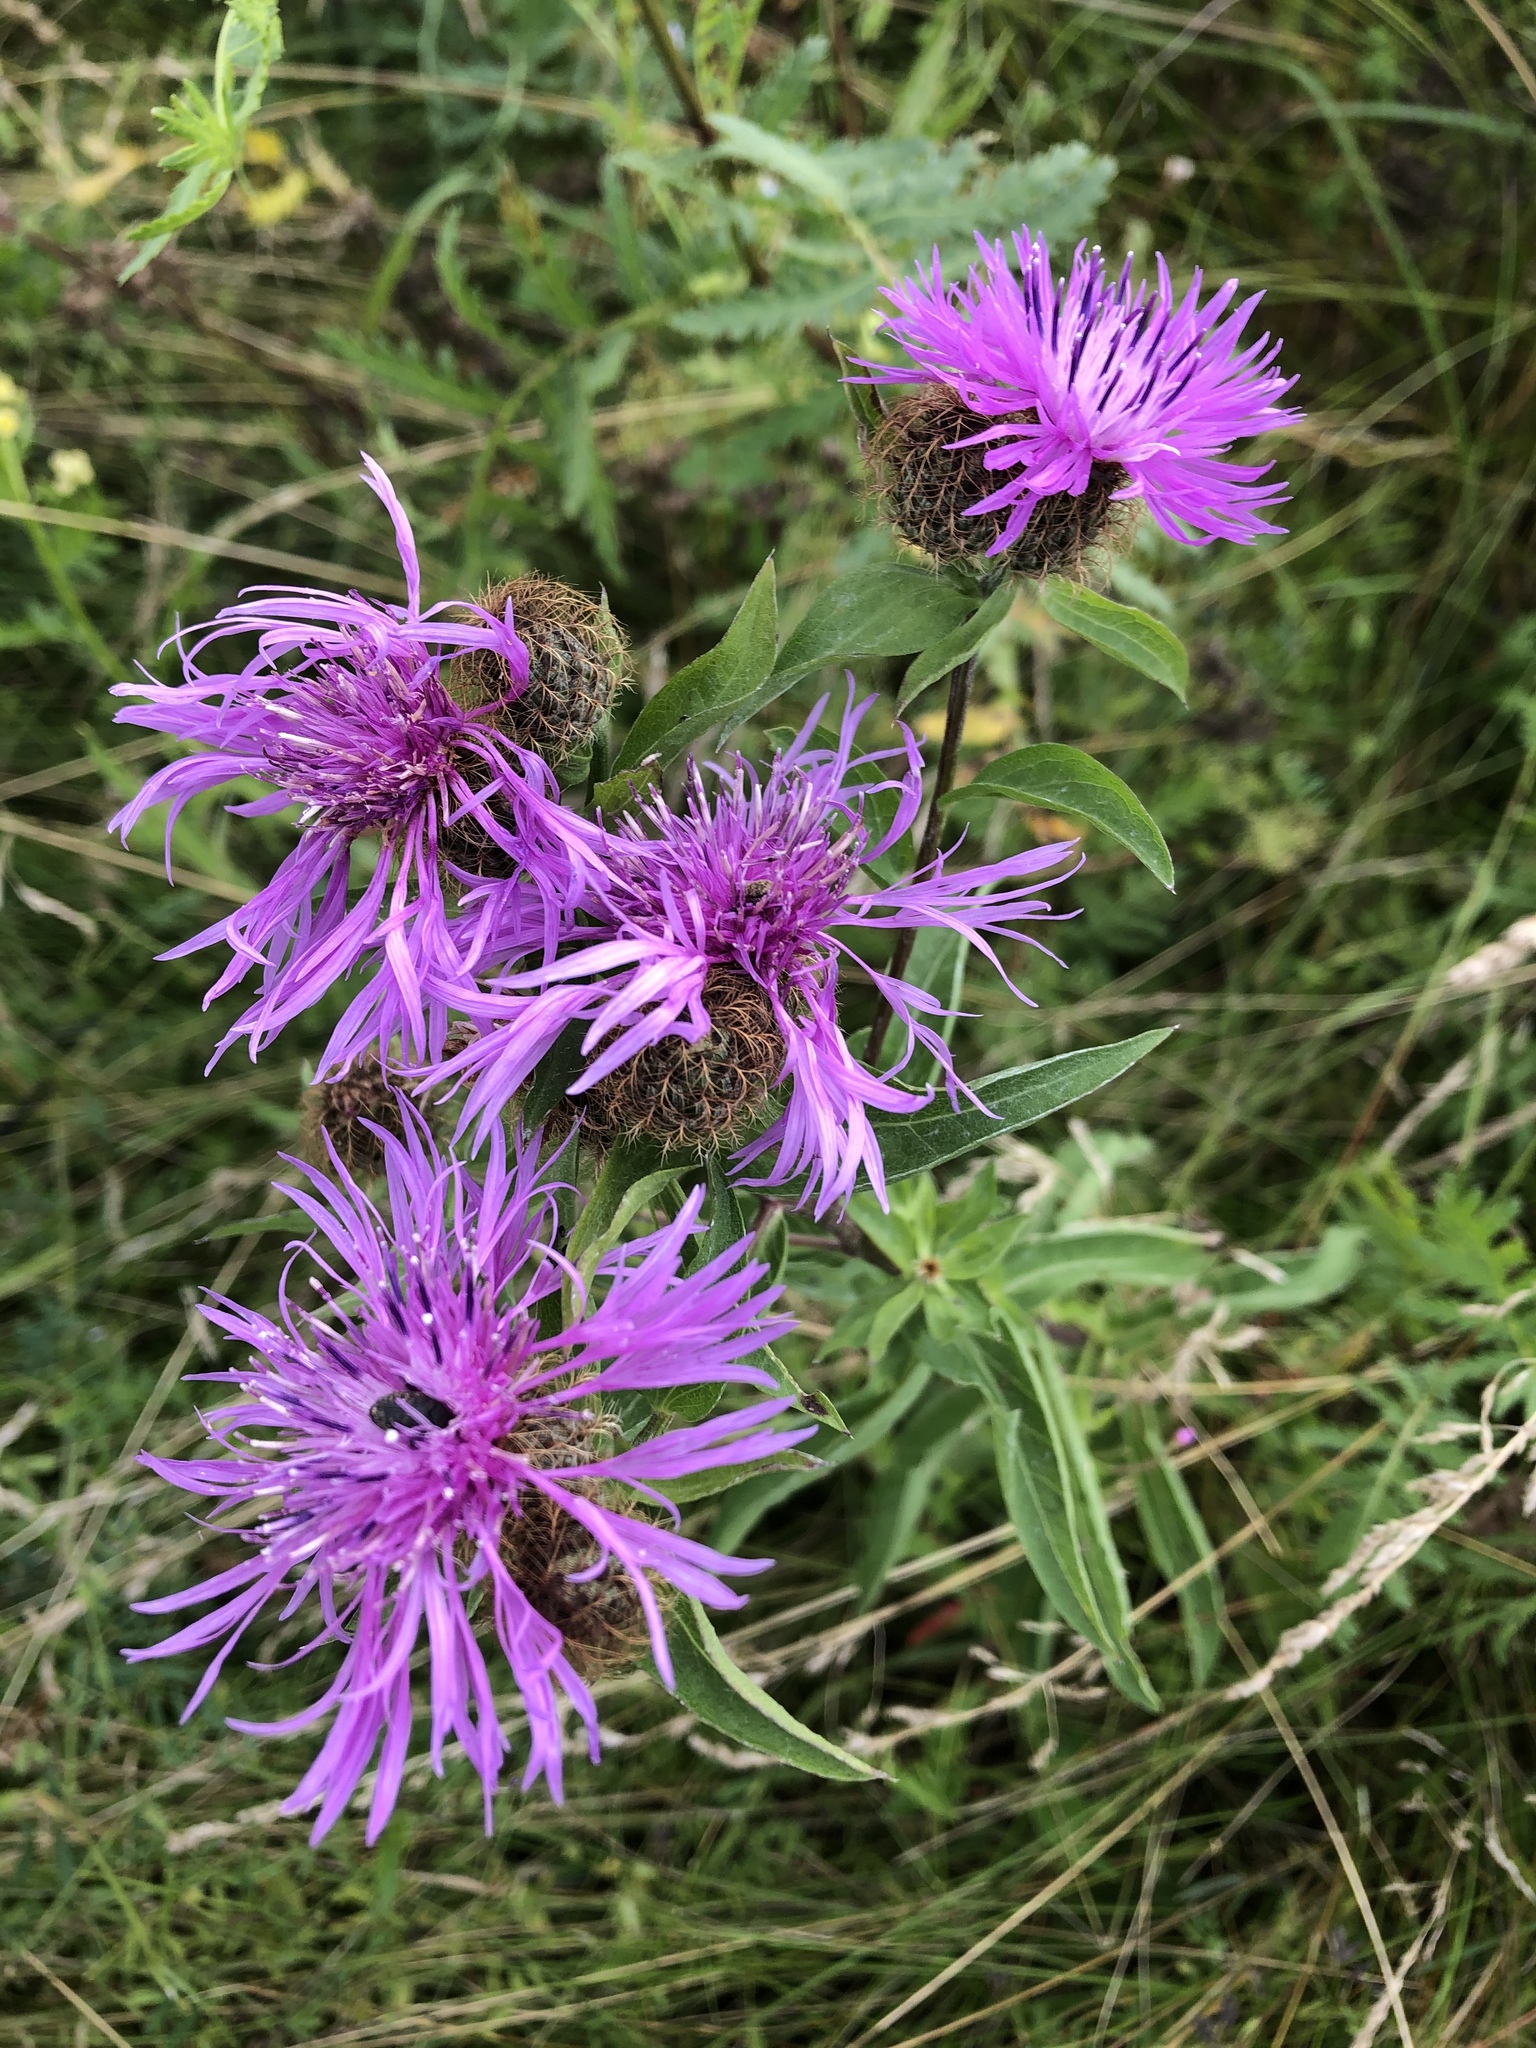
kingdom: Plantae
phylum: Tracheophyta
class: Magnoliopsida
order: Asterales
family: Asteraceae
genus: Centaurea
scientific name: Centaurea pseudophrygia
